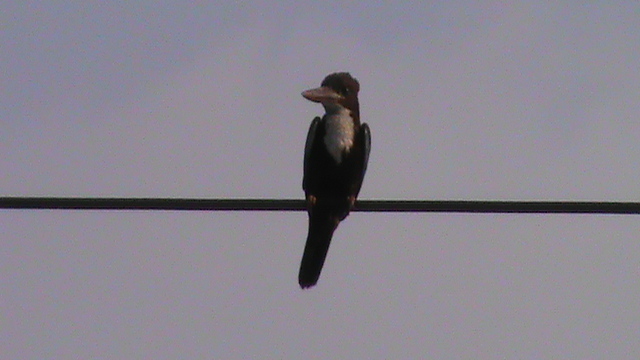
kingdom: Animalia
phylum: Chordata
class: Aves
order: Coraciiformes
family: Alcedinidae
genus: Halcyon
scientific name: Halcyon smyrnensis
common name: White-throated kingfisher
